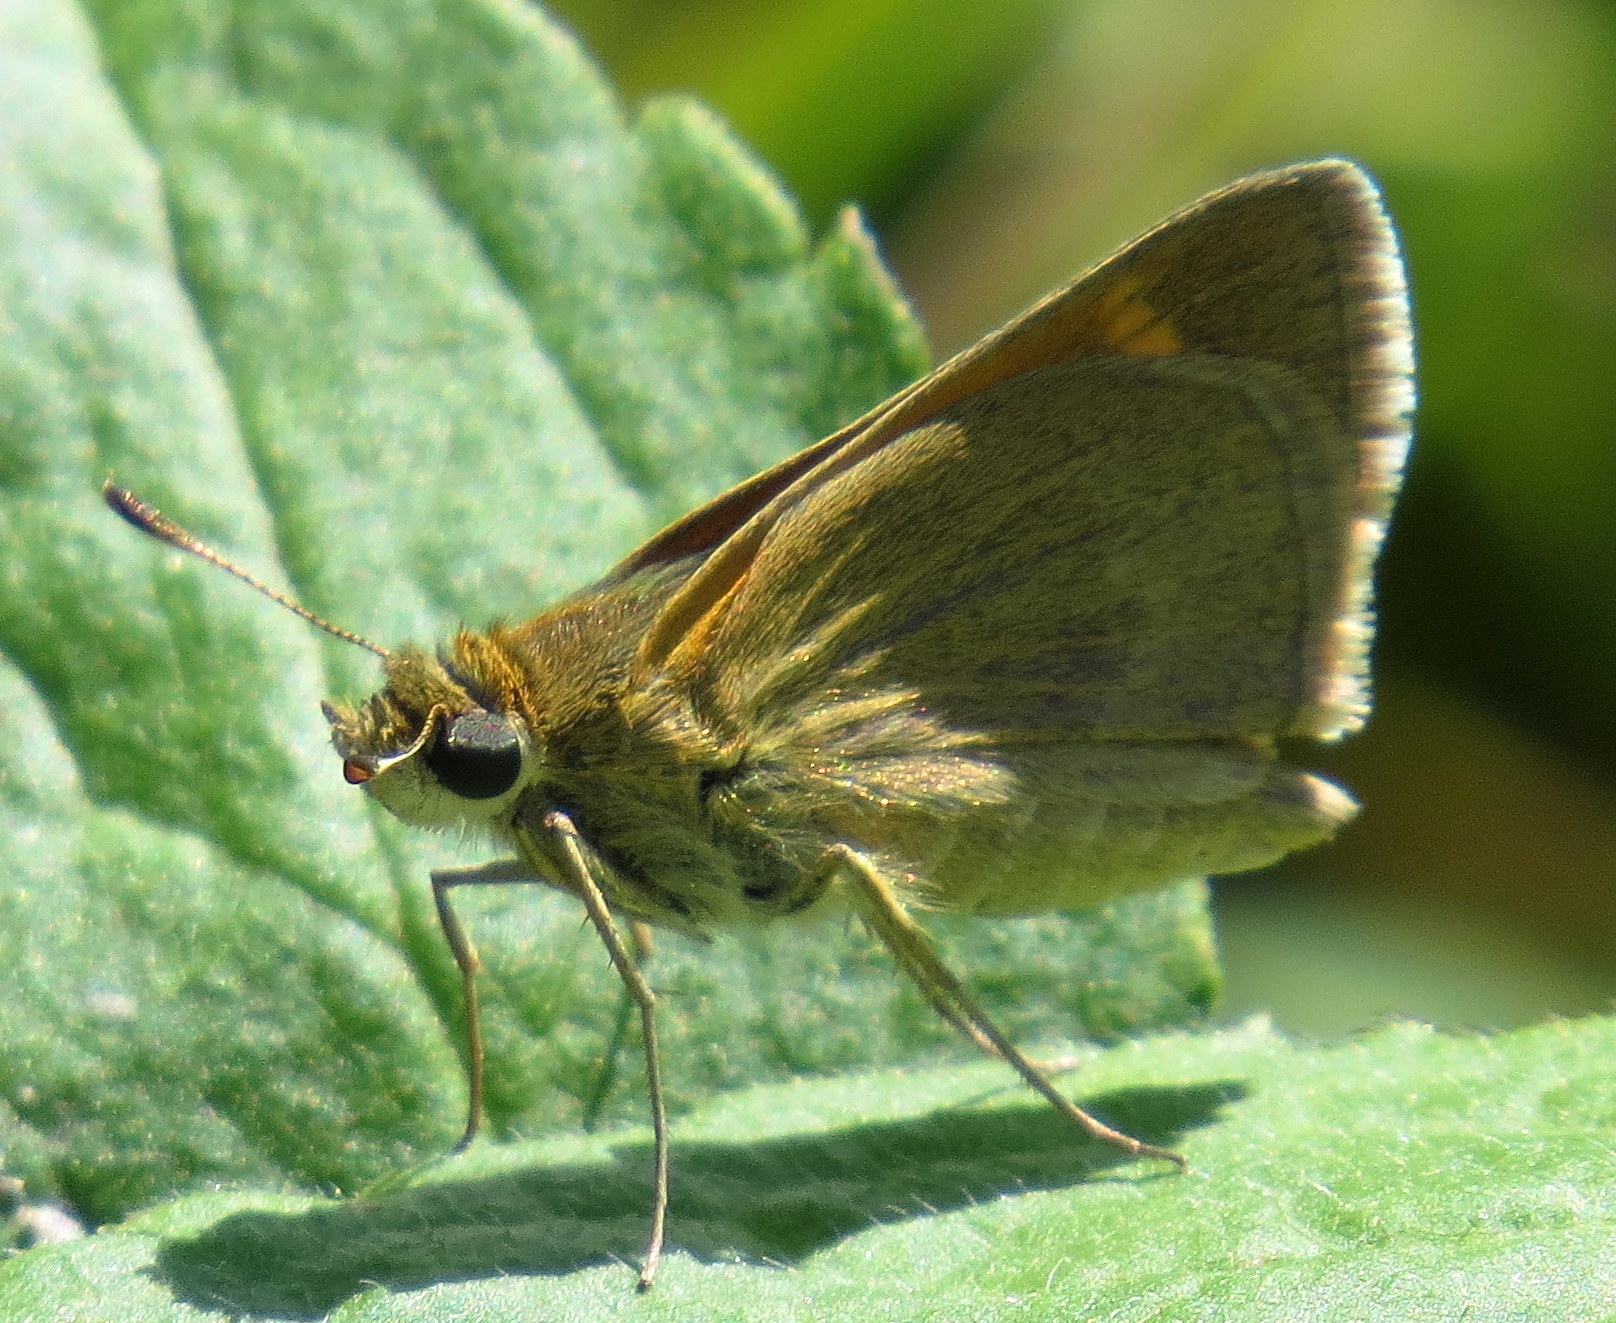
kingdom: Animalia
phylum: Arthropoda
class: Insecta
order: Lepidoptera
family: Hesperiidae
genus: Polites
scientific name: Polites themistocles
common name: Tawny-edged skipper
